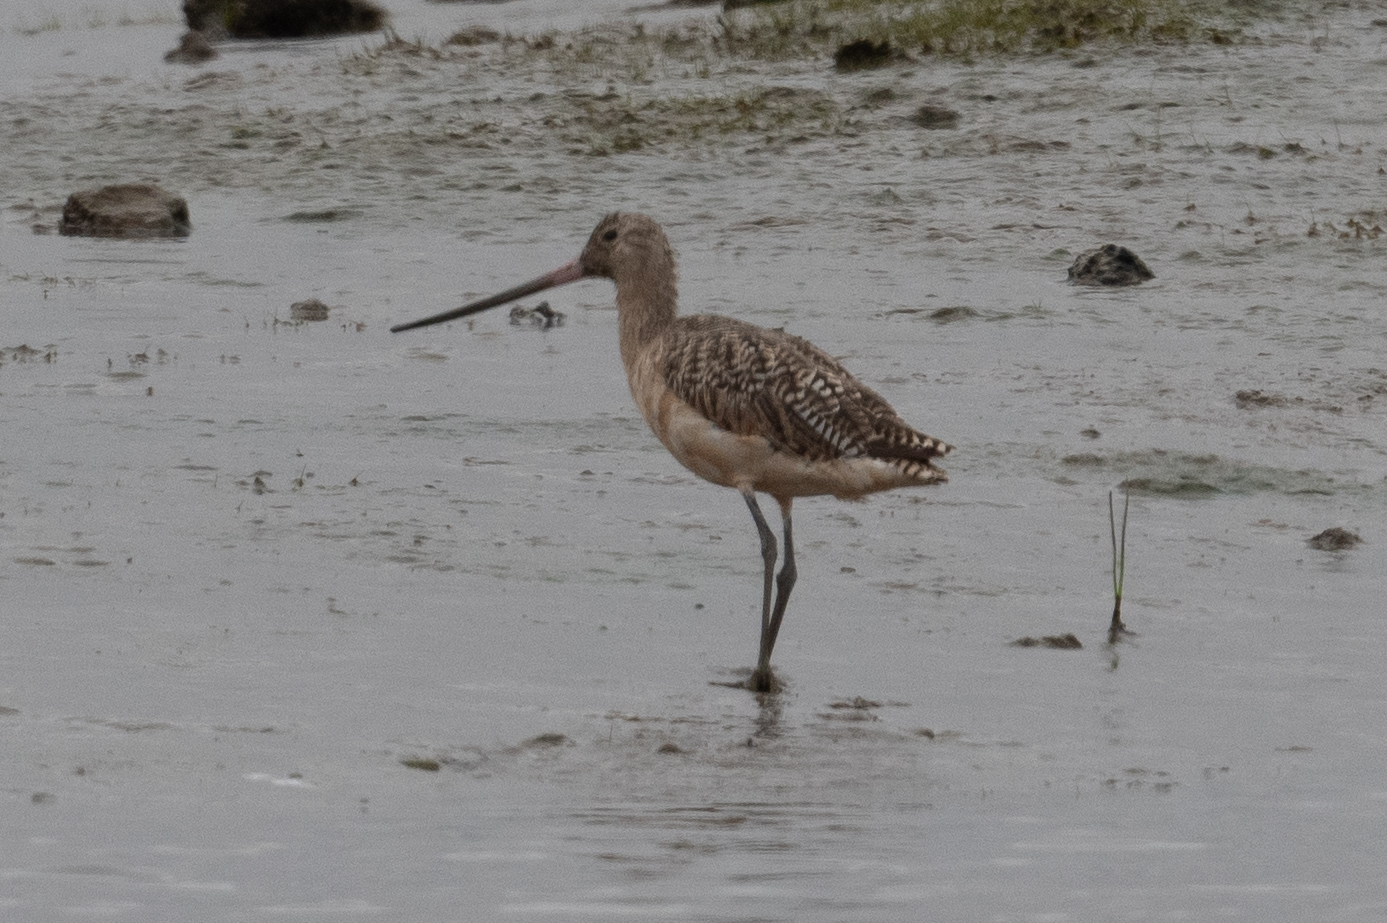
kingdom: Animalia
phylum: Chordata
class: Aves
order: Charadriiformes
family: Scolopacidae
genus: Limosa
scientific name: Limosa fedoa
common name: Marbled godwit
